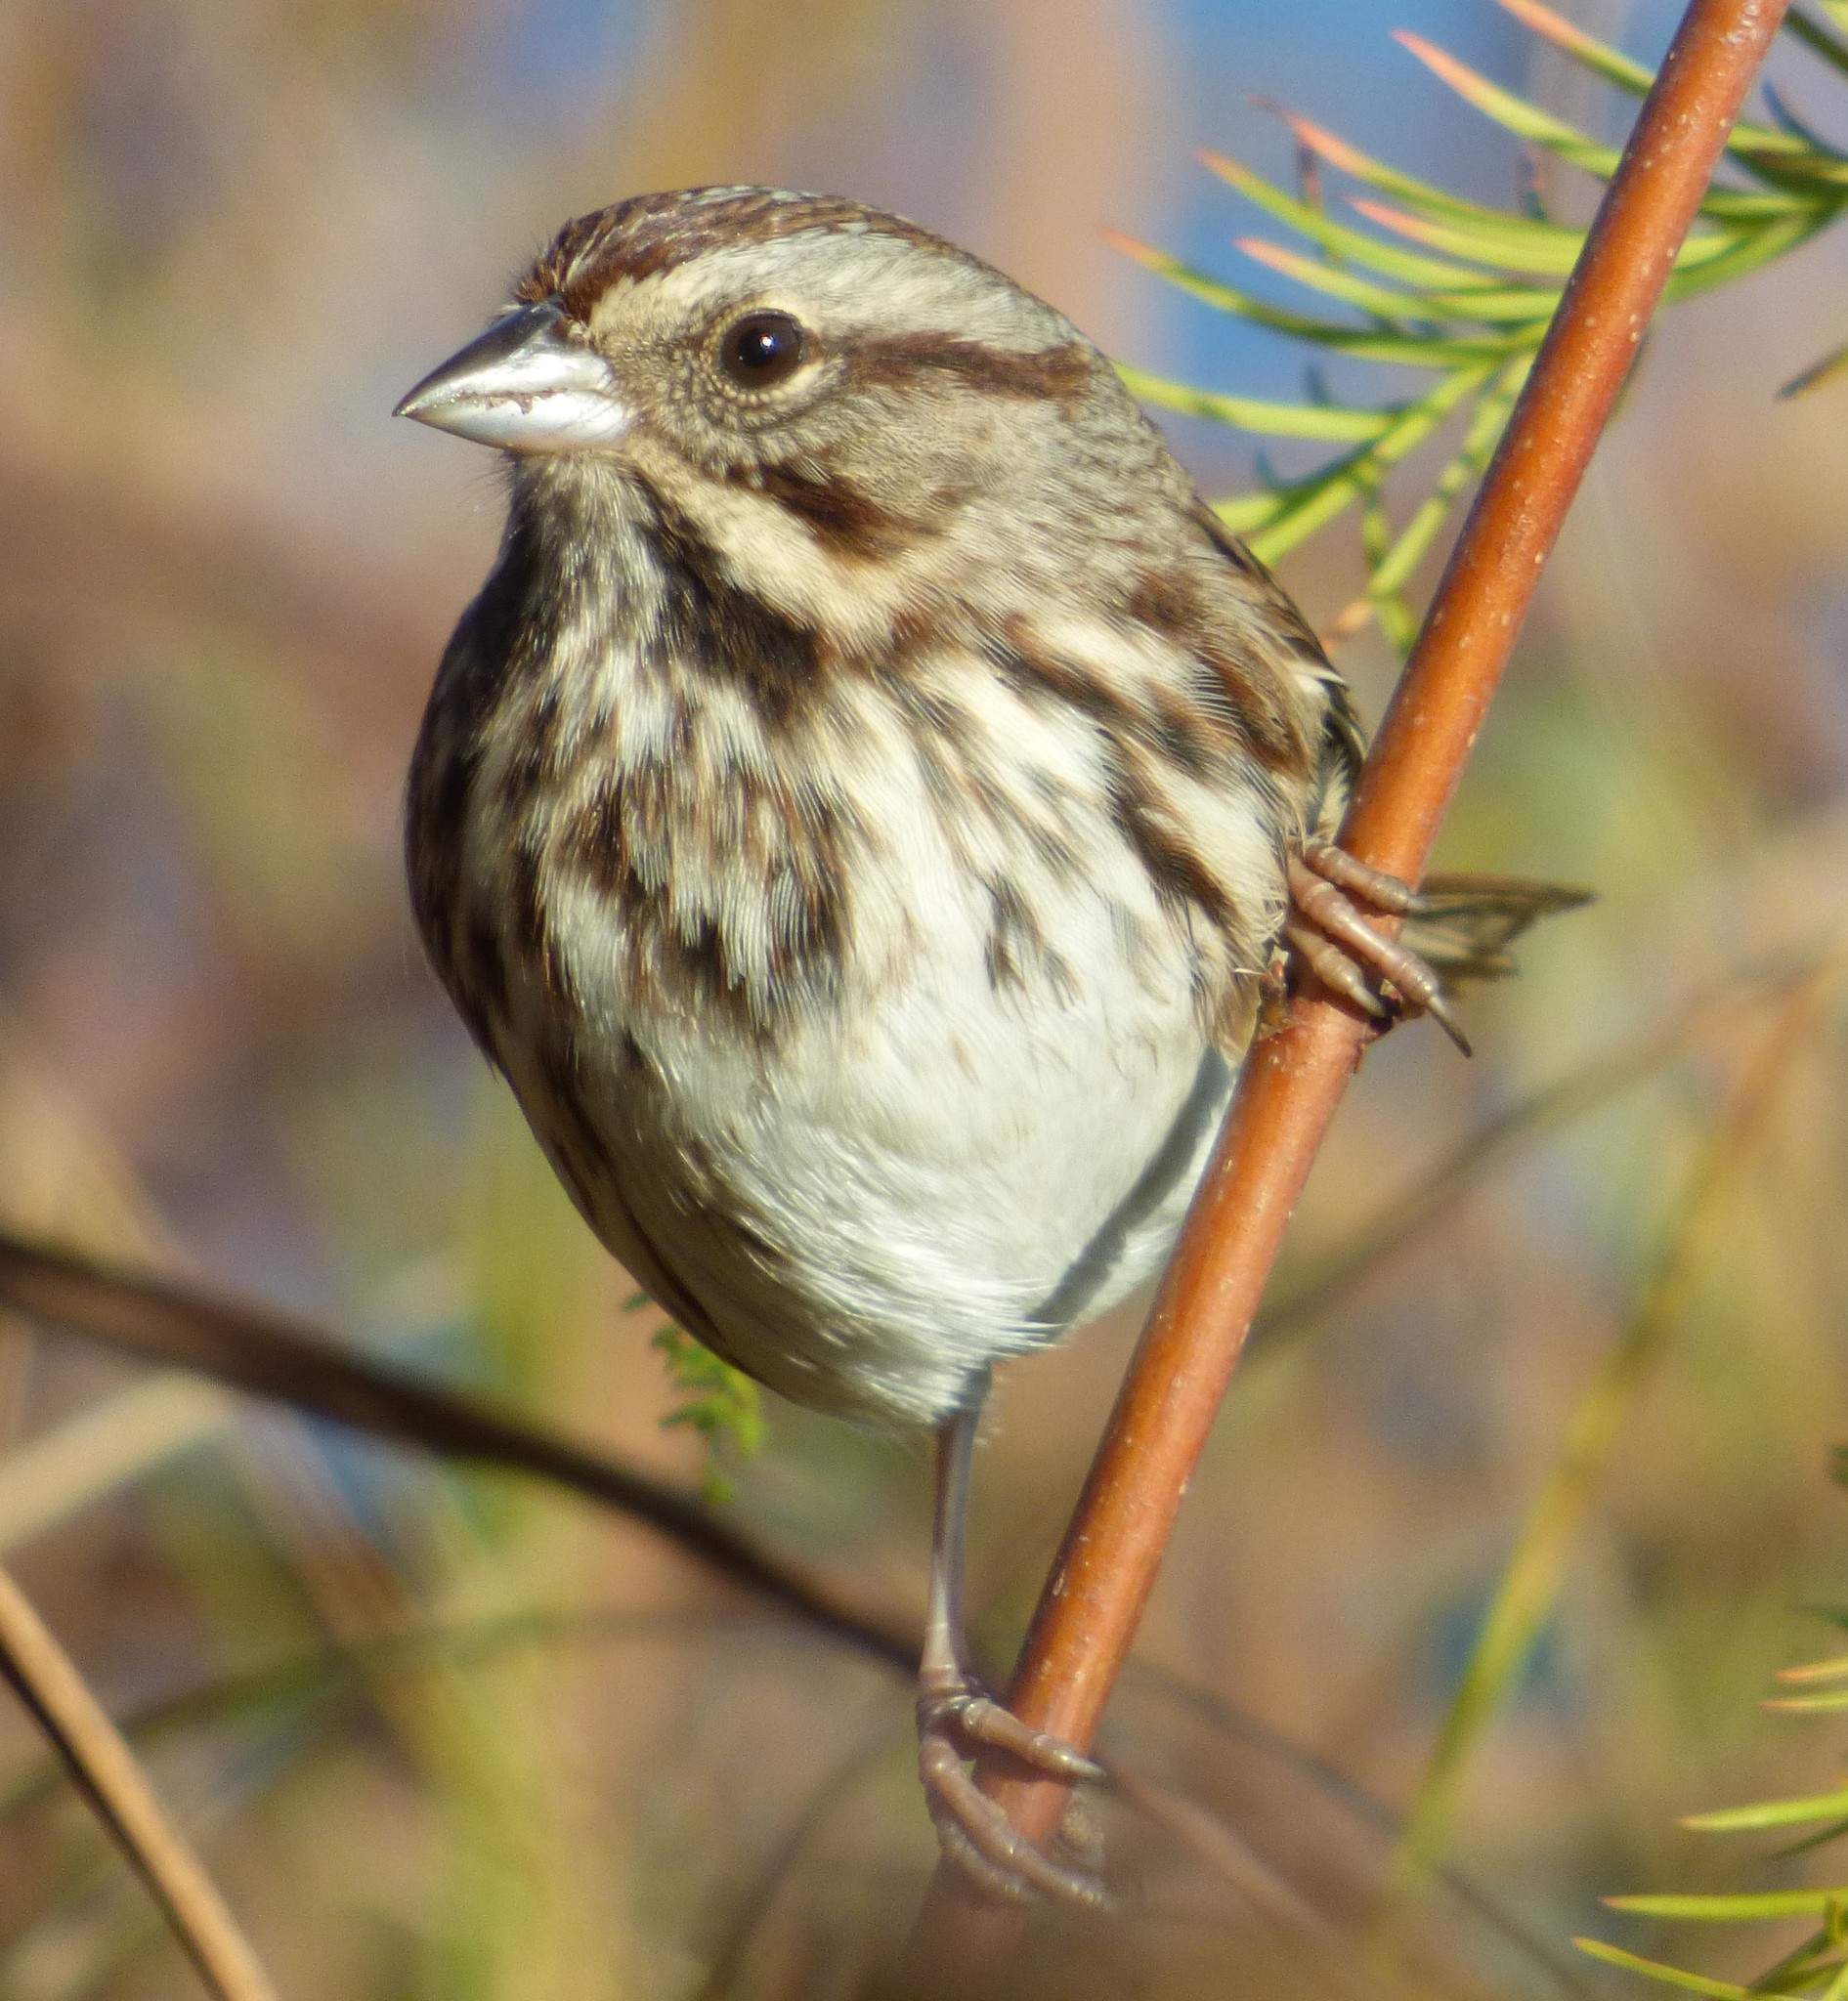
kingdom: Animalia
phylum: Chordata
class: Aves
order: Passeriformes
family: Passerellidae
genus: Melospiza
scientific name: Melospiza melodia
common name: Song sparrow
